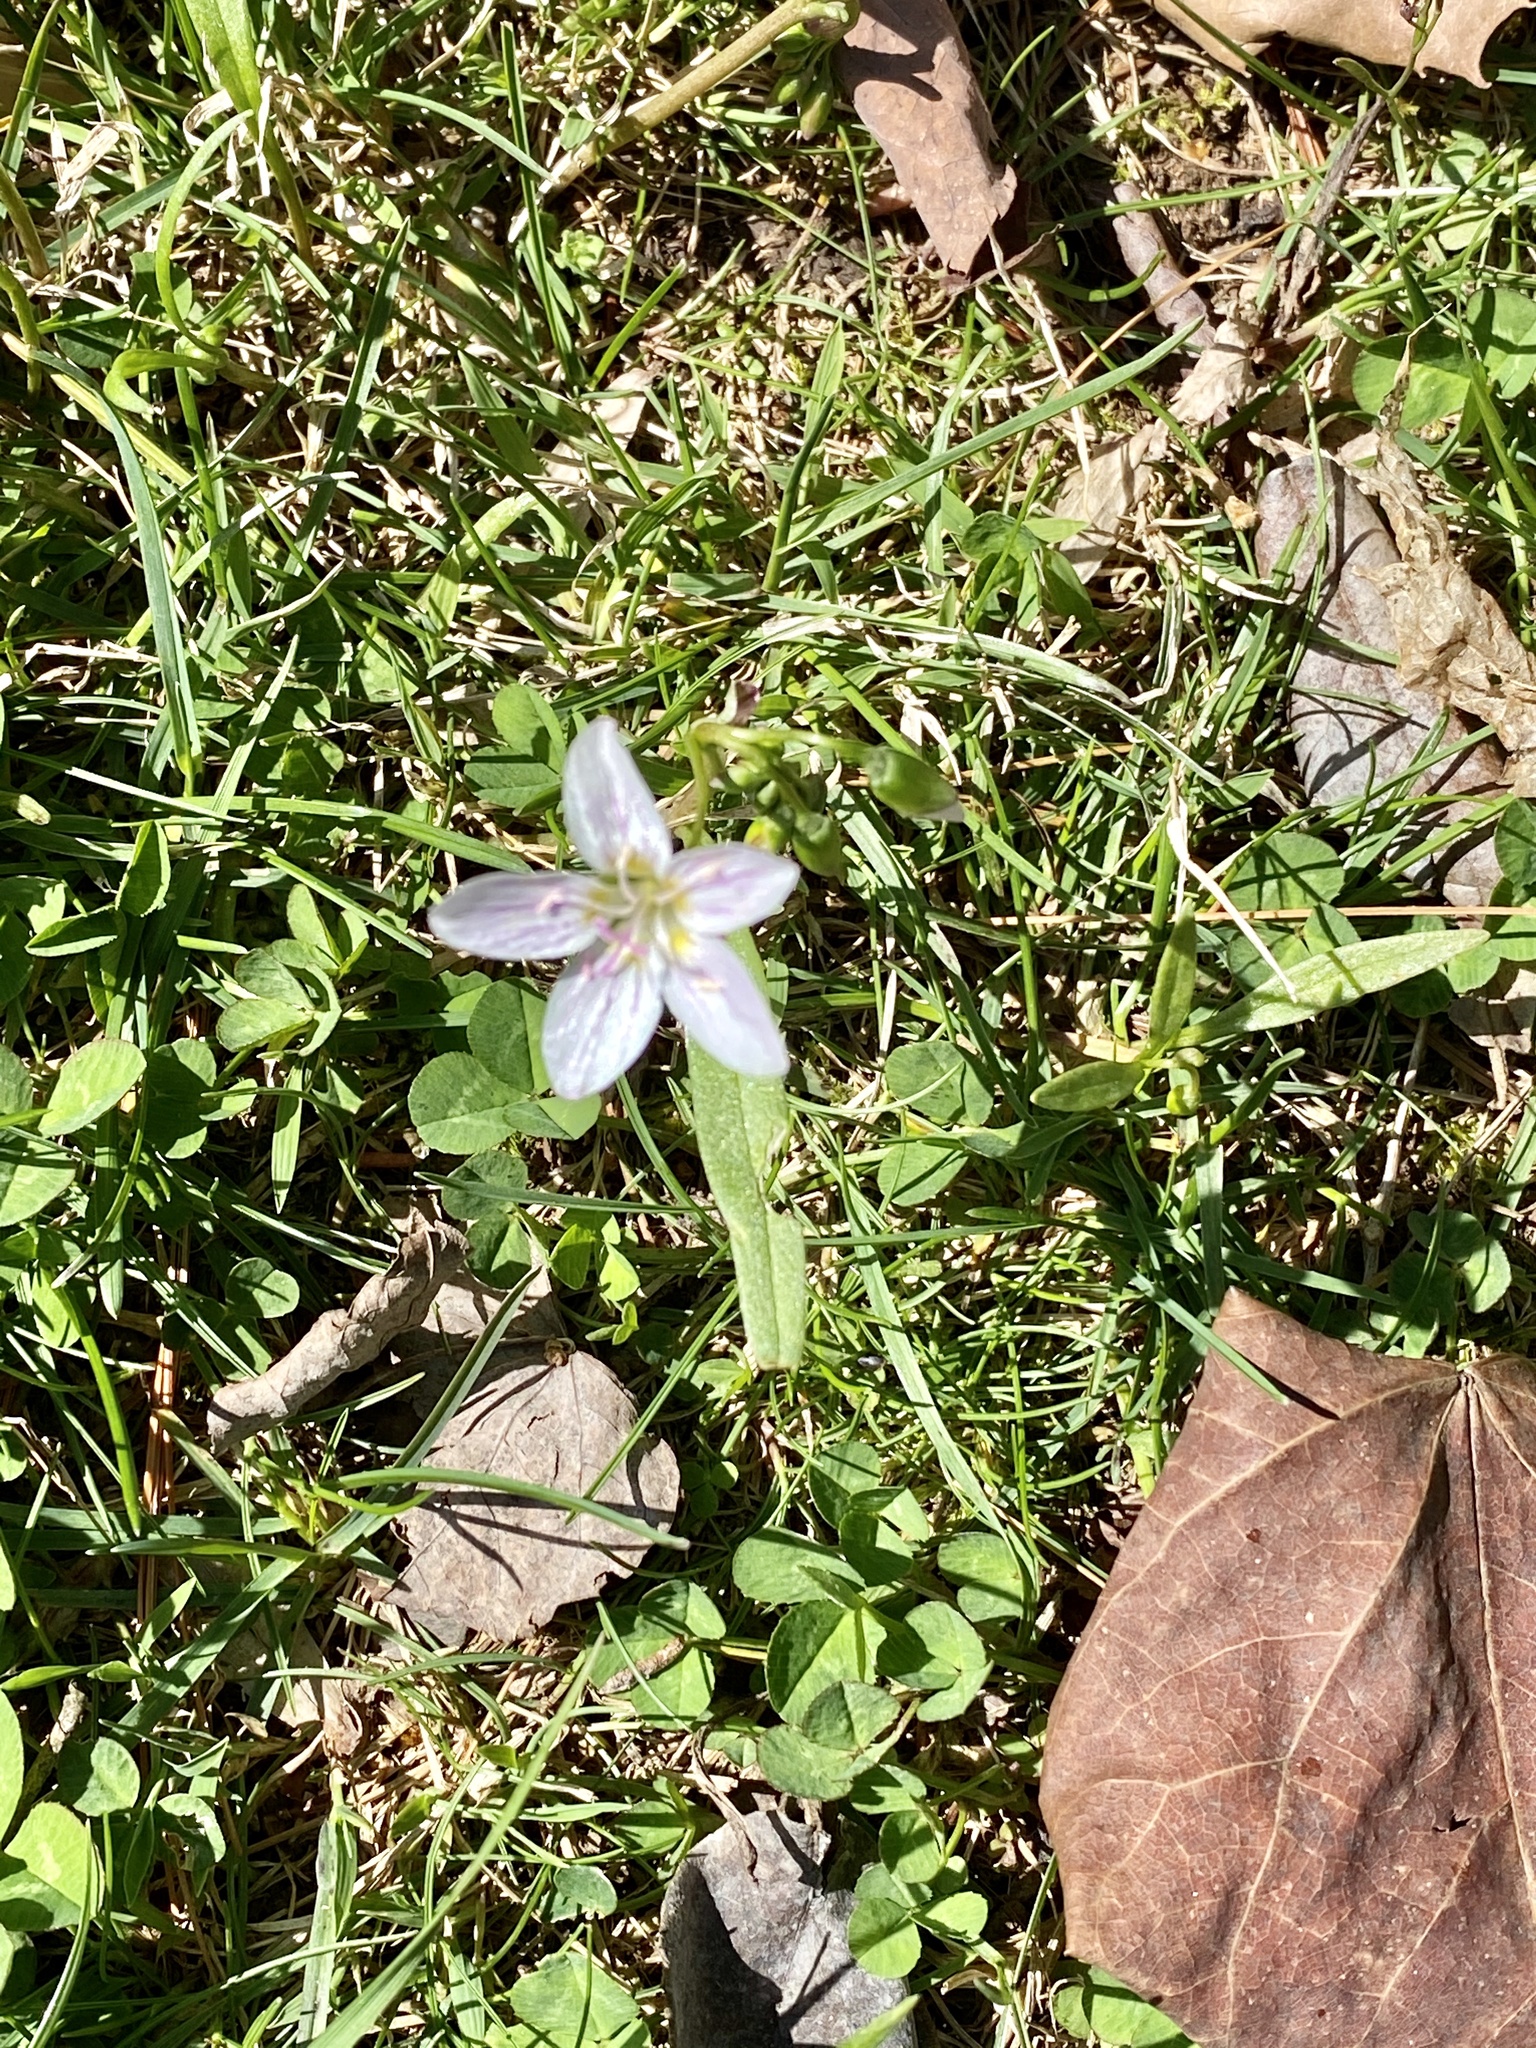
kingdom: Plantae
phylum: Tracheophyta
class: Magnoliopsida
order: Caryophyllales
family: Montiaceae
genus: Claytonia
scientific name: Claytonia virginica
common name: Virginia springbeauty
